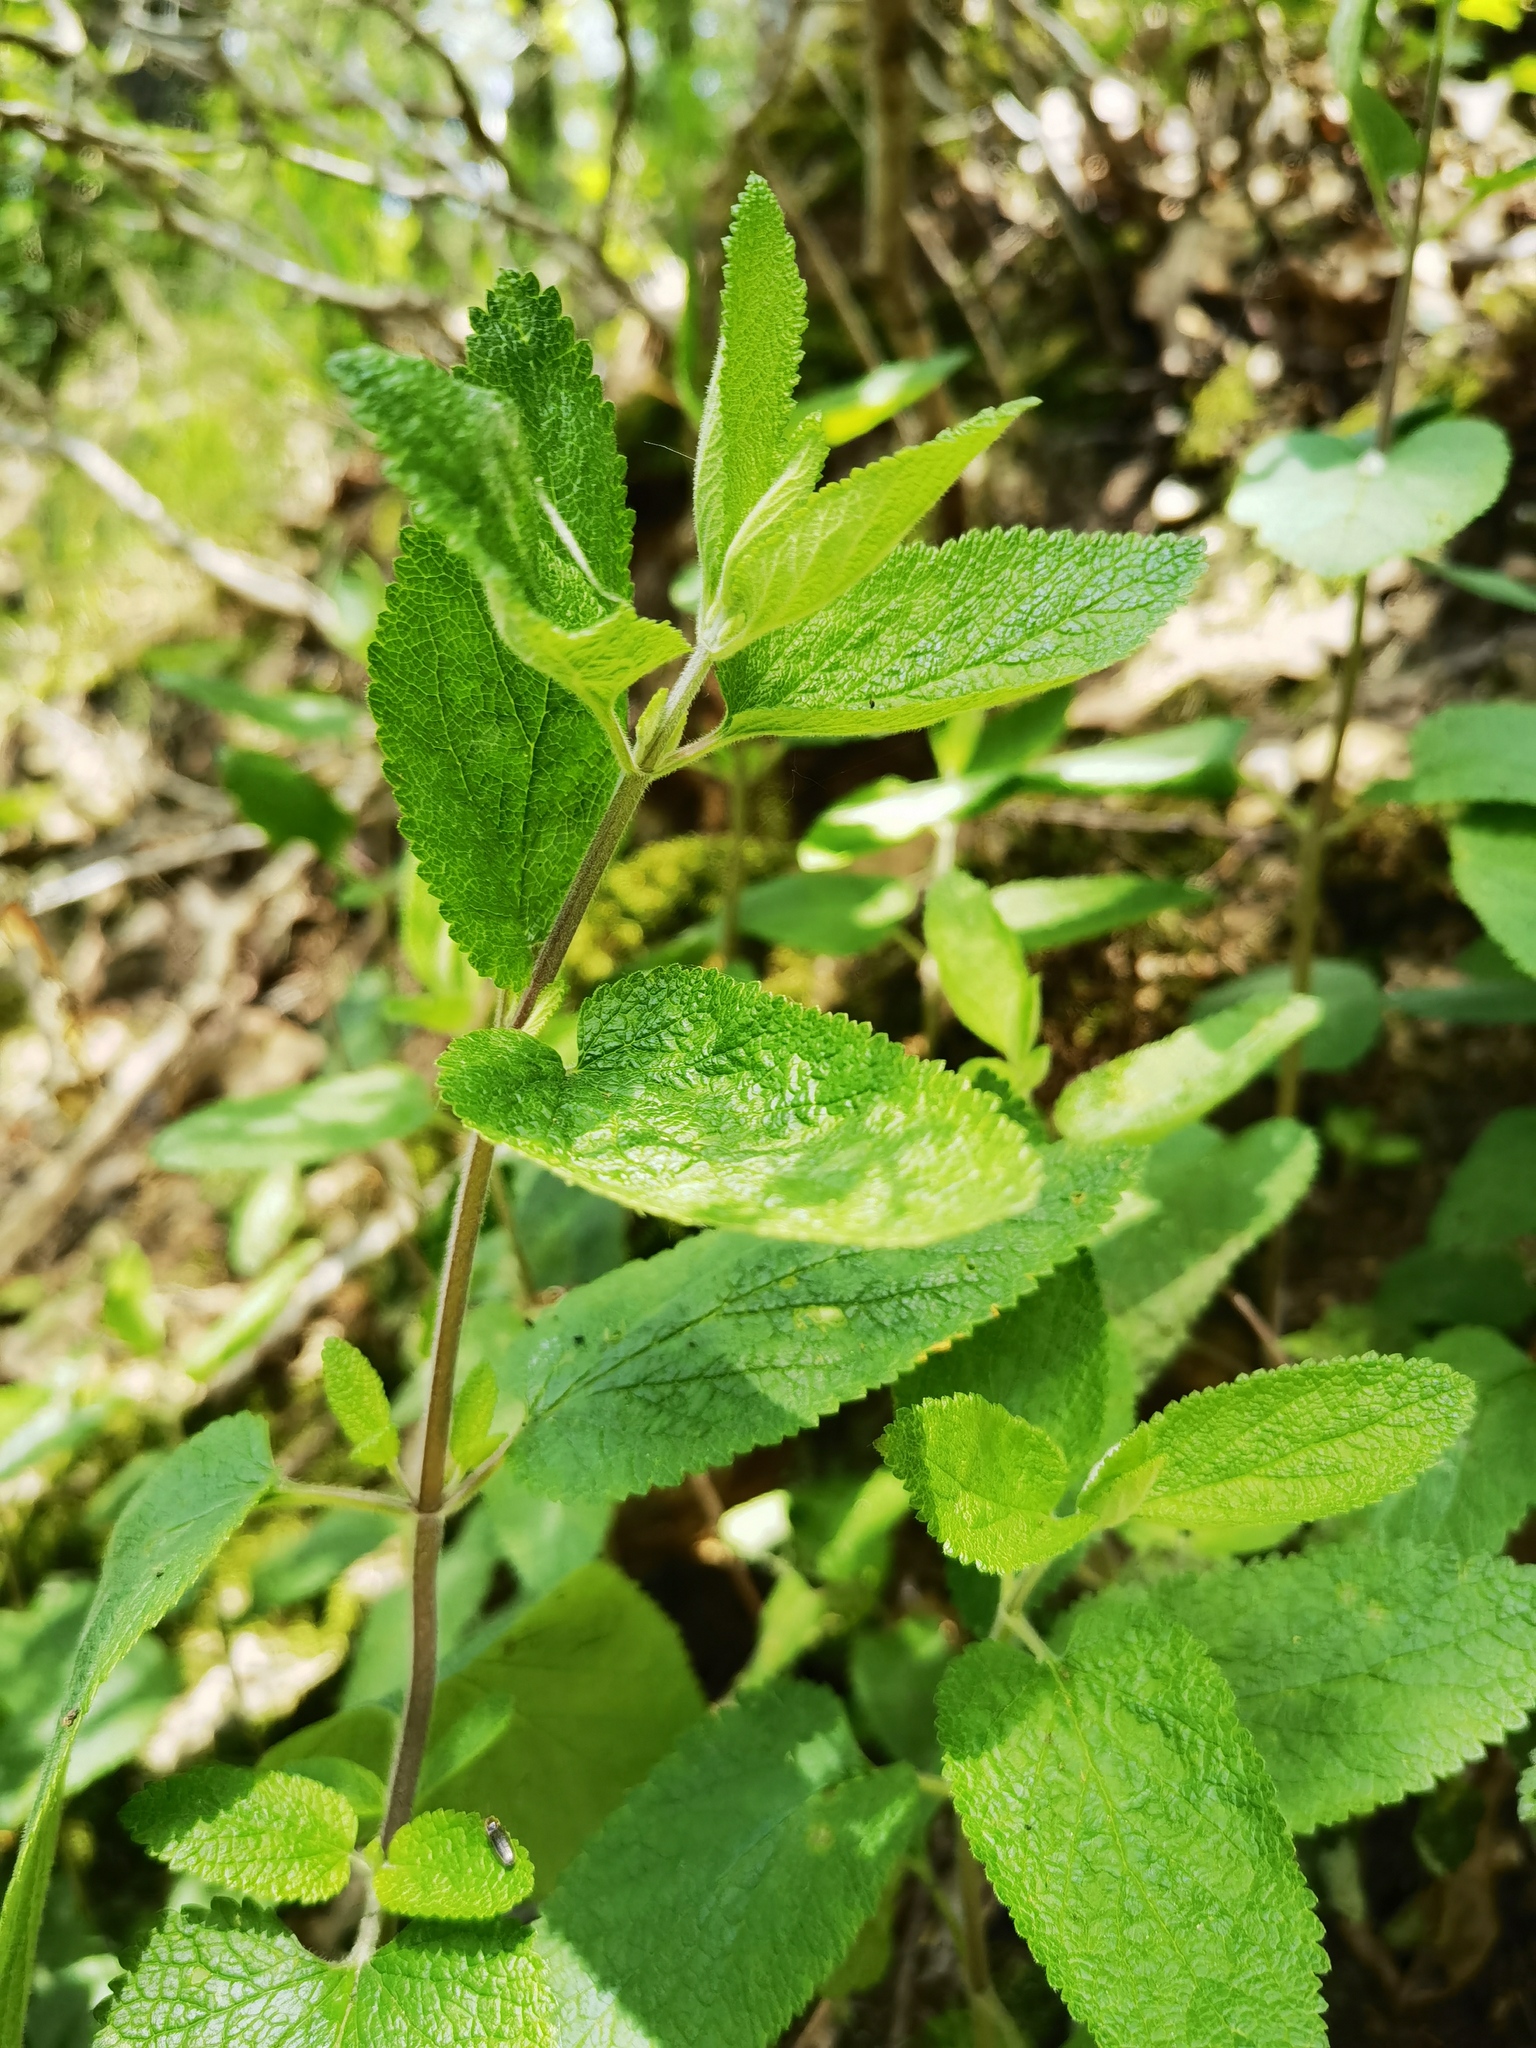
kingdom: Plantae
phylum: Tracheophyta
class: Magnoliopsida
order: Lamiales
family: Lamiaceae
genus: Teucrium
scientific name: Teucrium scorodonia
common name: Woodland germander
